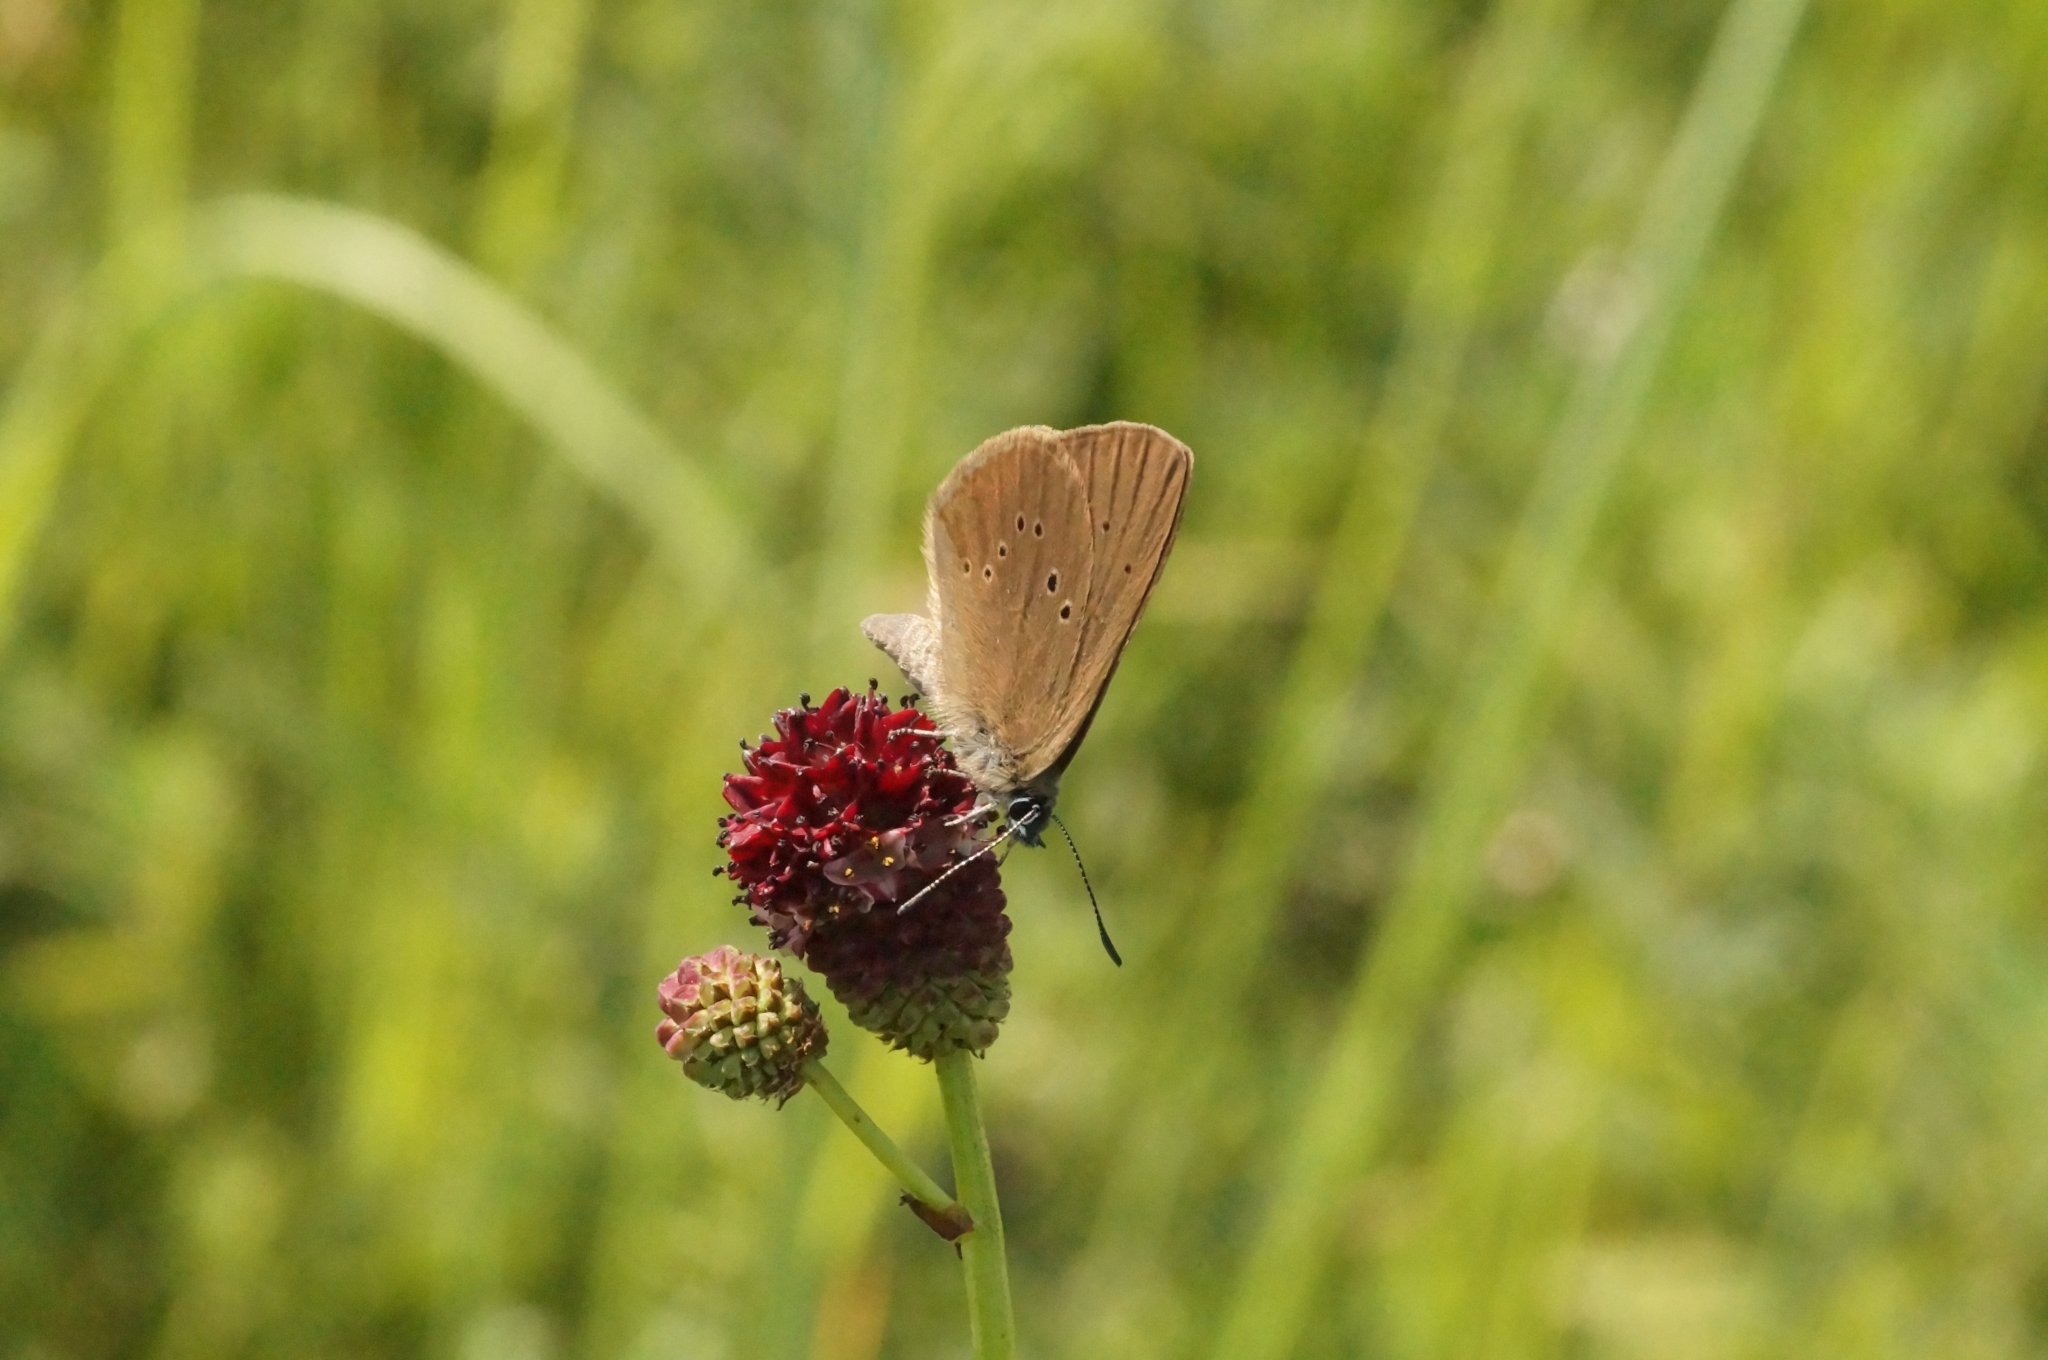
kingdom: Animalia
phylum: Arthropoda
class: Insecta
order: Lepidoptera
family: Lycaenidae
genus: Maculinea
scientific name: Maculinea nausithous
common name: Dusky large blue
